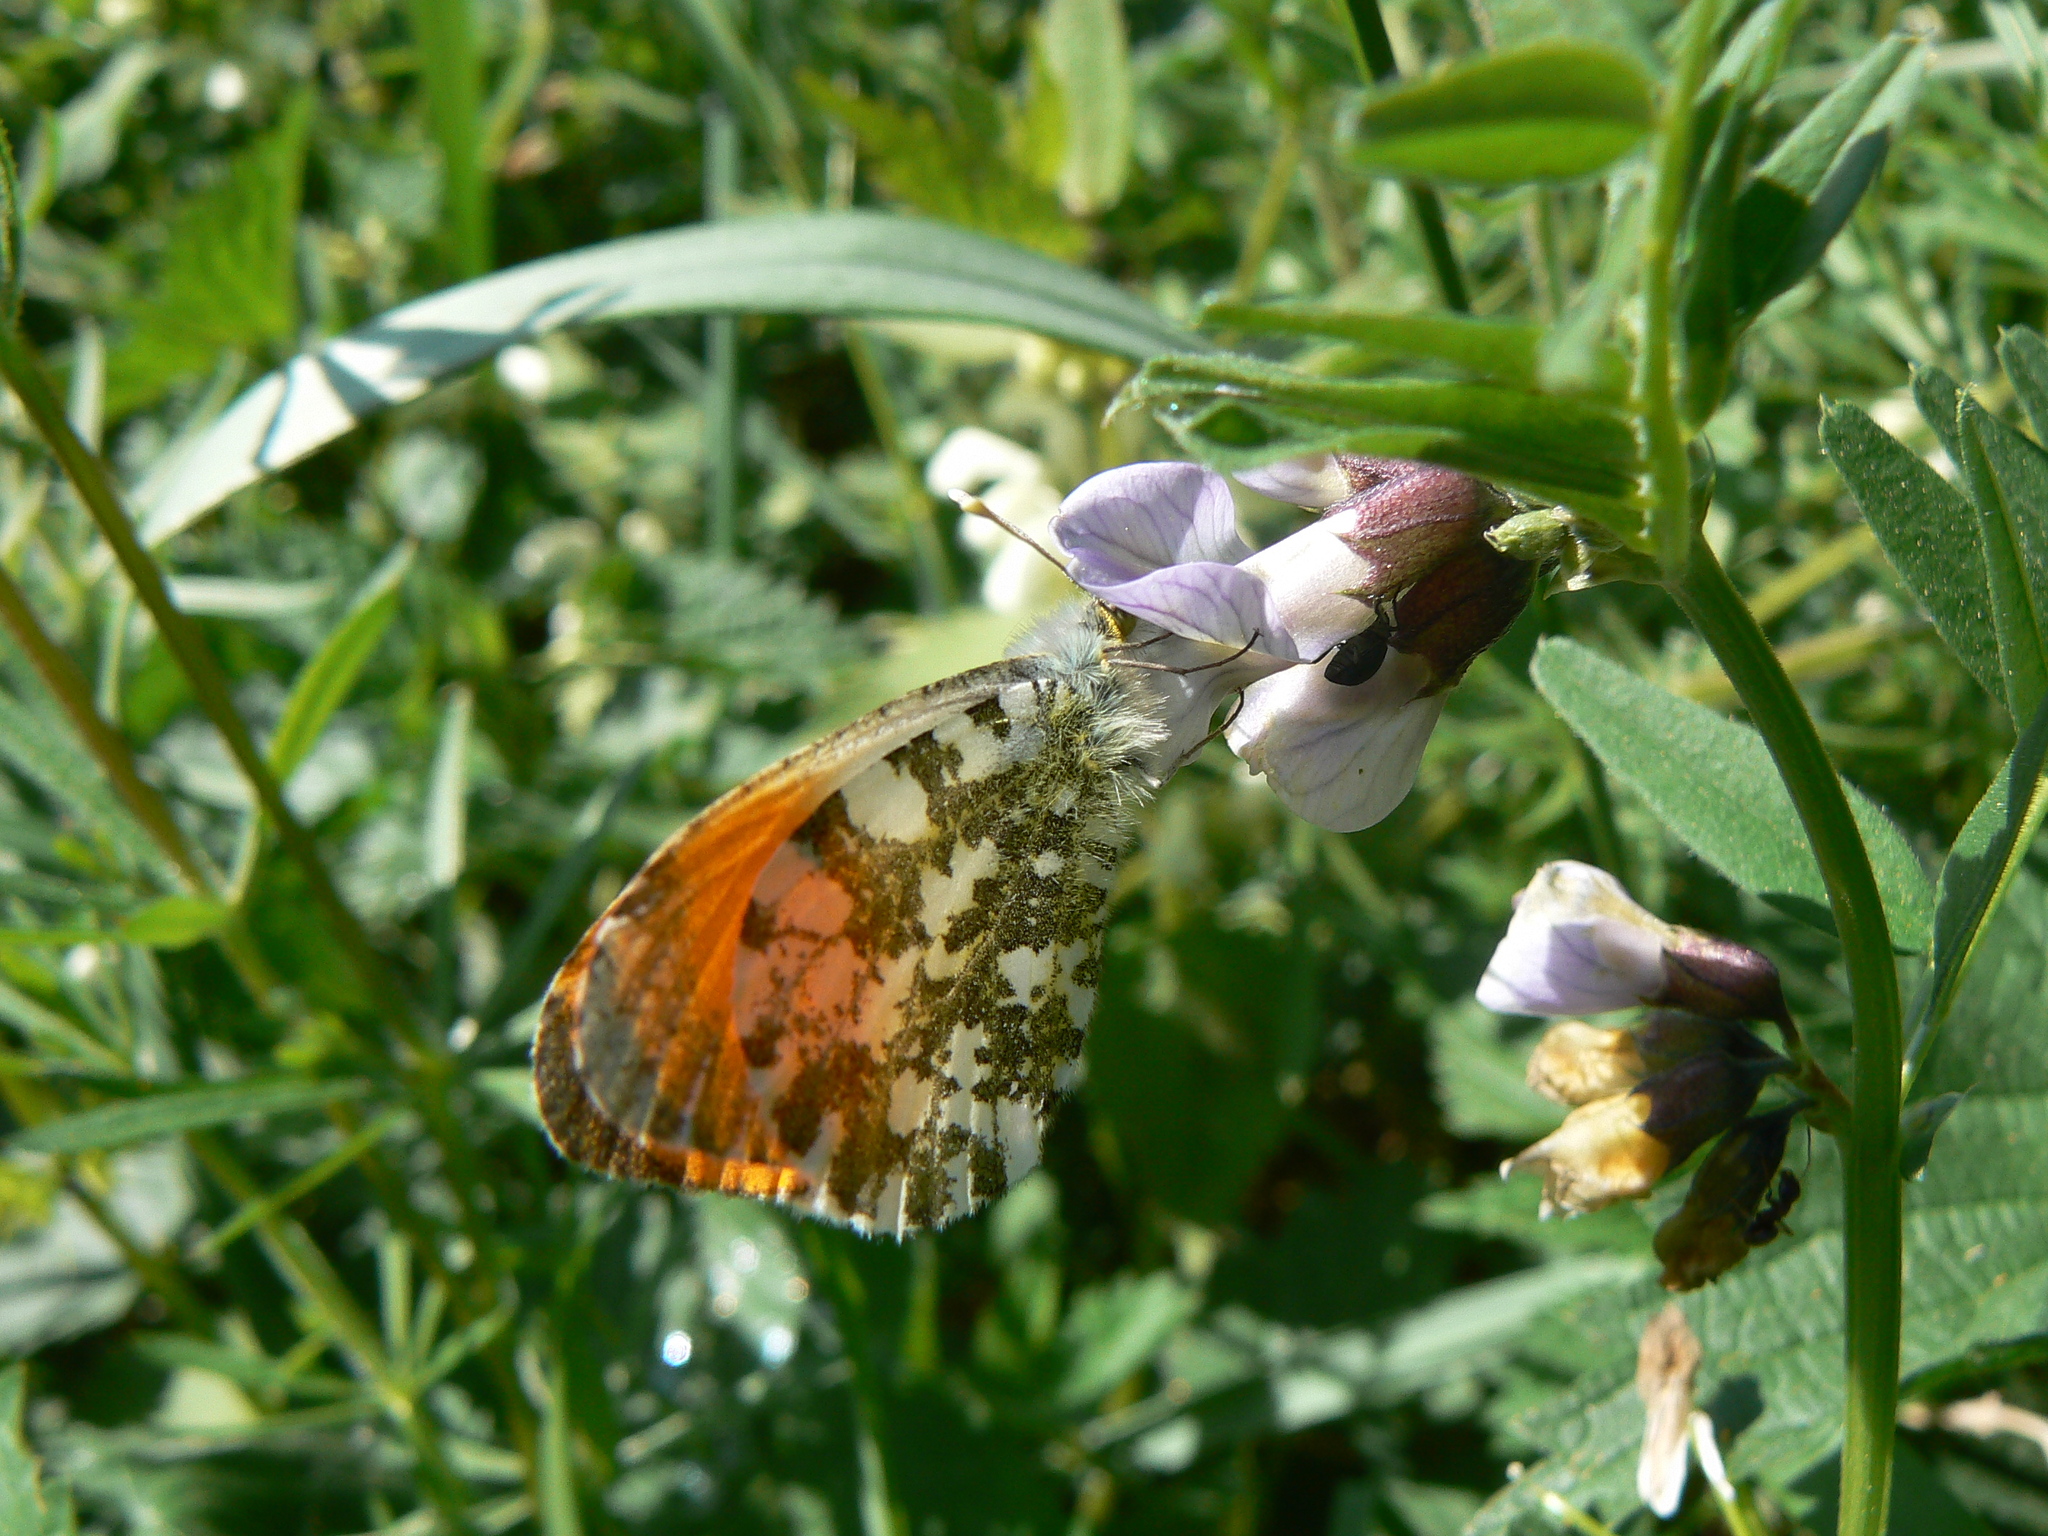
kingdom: Animalia
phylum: Arthropoda
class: Insecta
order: Lepidoptera
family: Pieridae
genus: Anthocharis
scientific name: Anthocharis cardamines
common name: Orange-tip
